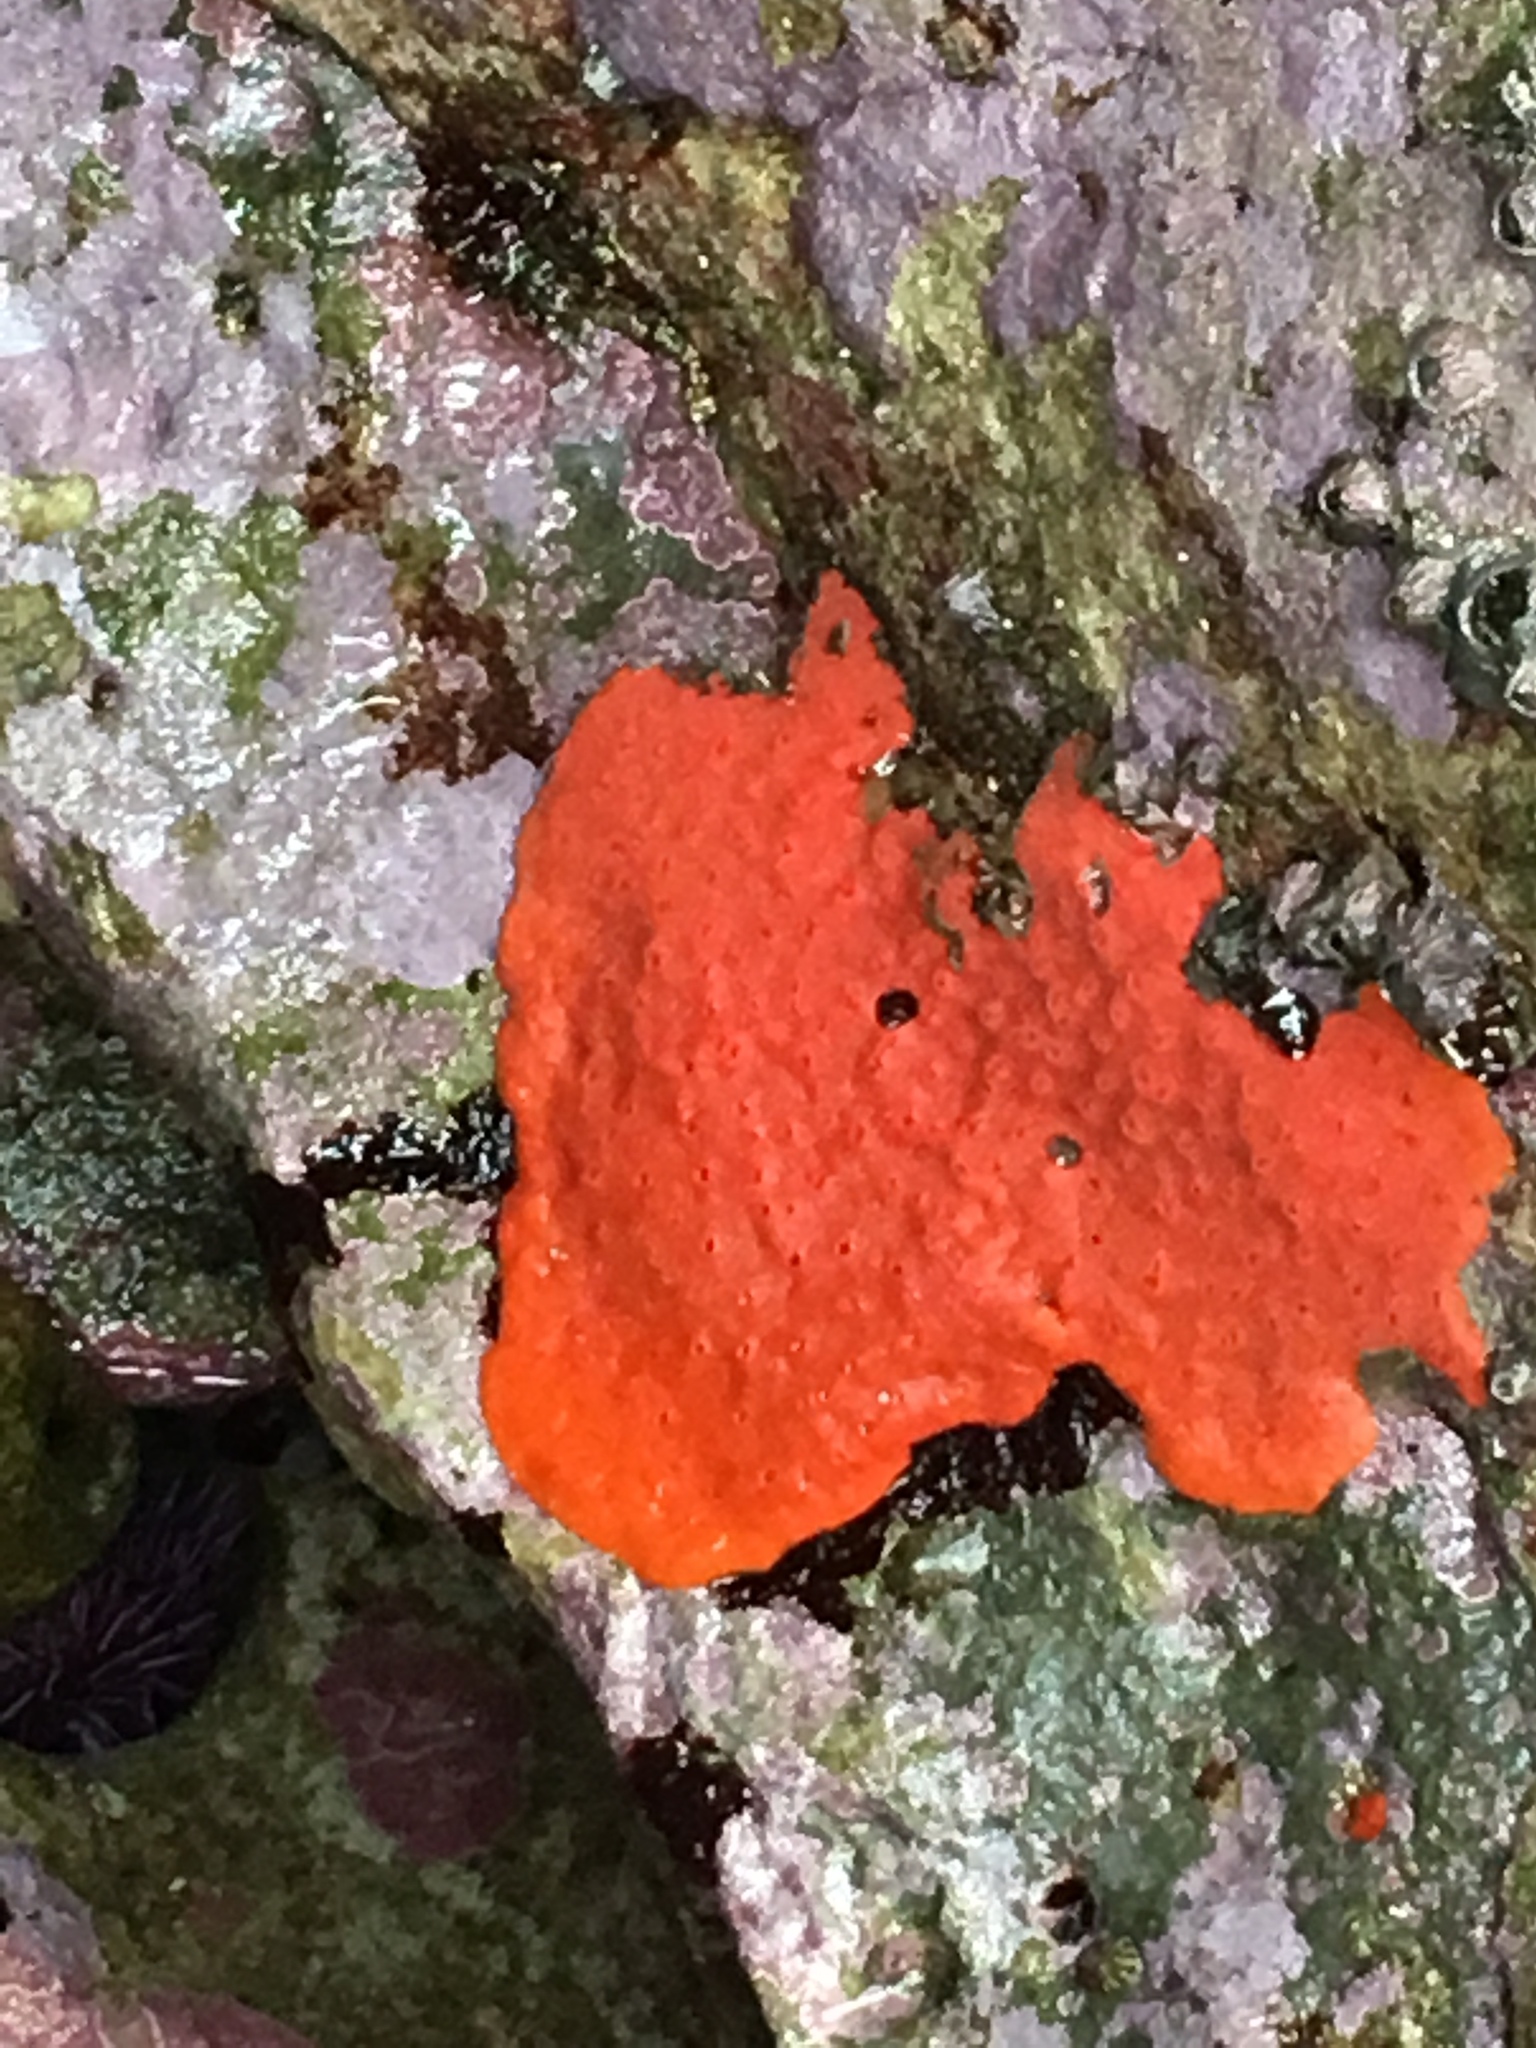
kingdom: Animalia
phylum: Porifera
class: Demospongiae
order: Poecilosclerida
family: Microcionidae
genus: Clathria
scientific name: Clathria pennata
